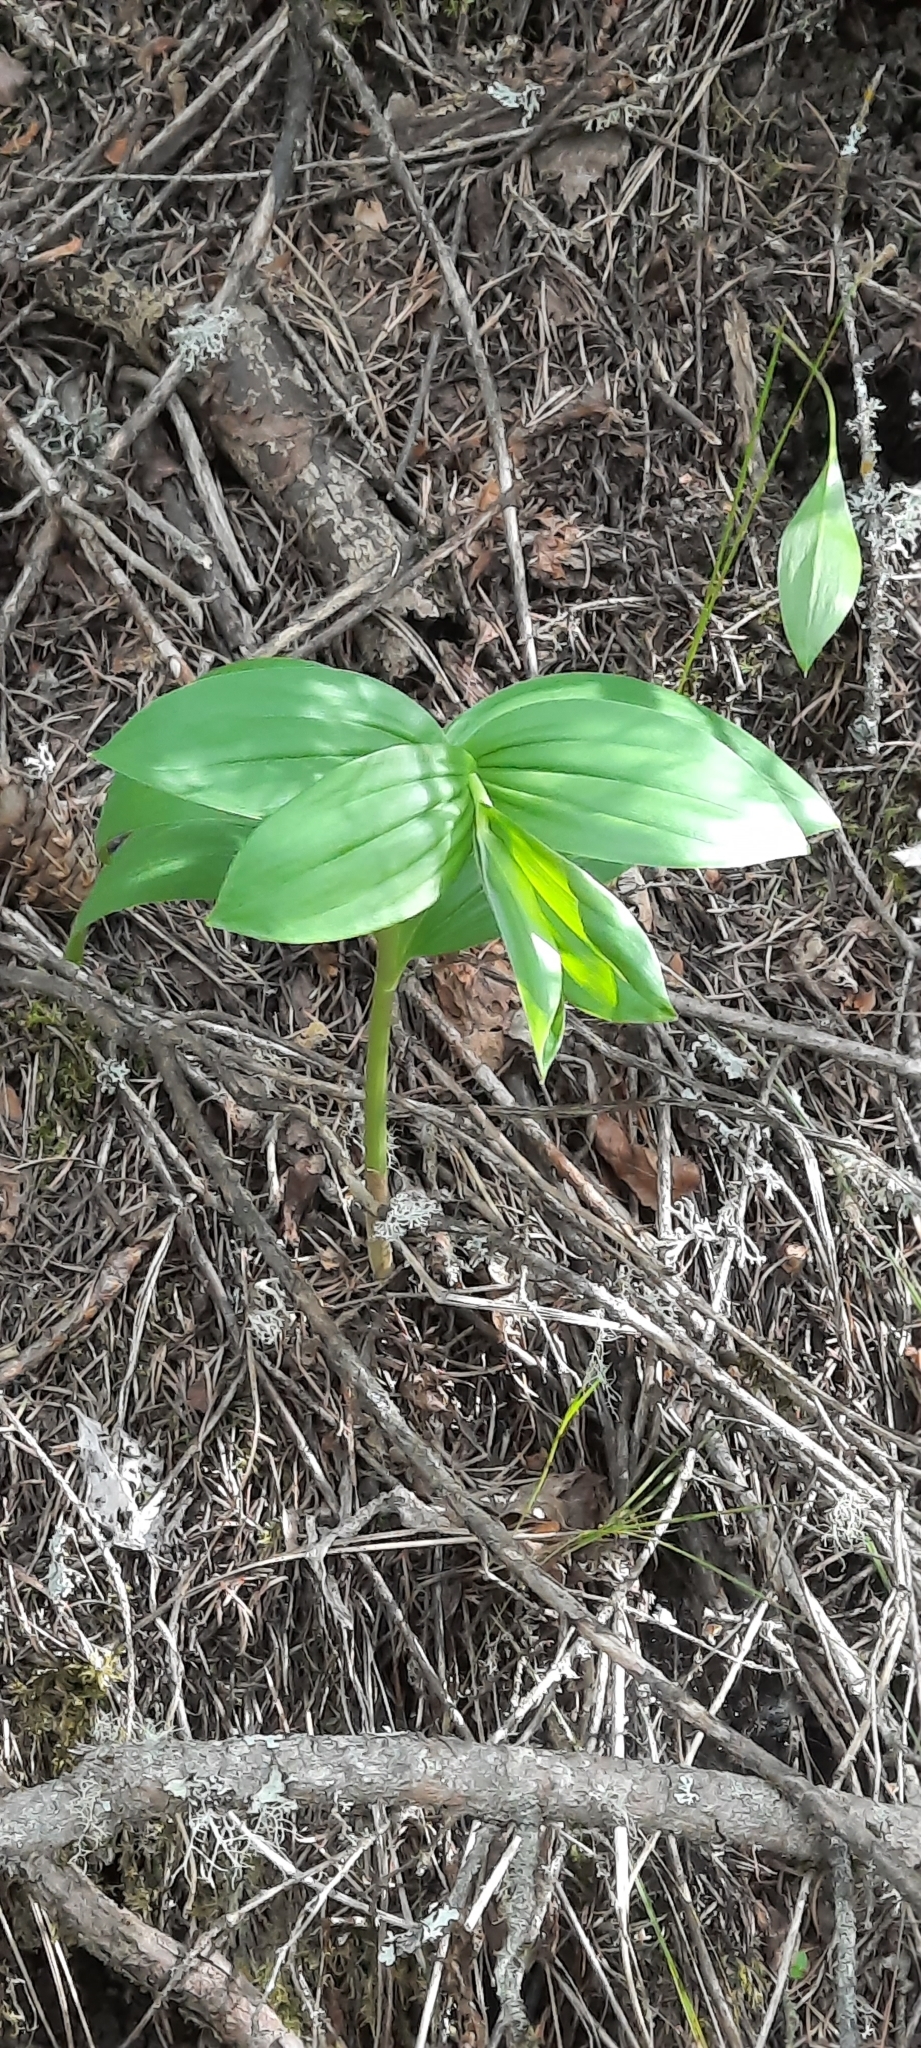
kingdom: Plantae
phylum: Tracheophyta
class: Liliopsida
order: Asparagales
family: Asparagaceae
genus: Maianthemum
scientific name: Maianthemum racemosum
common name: False spikenard
